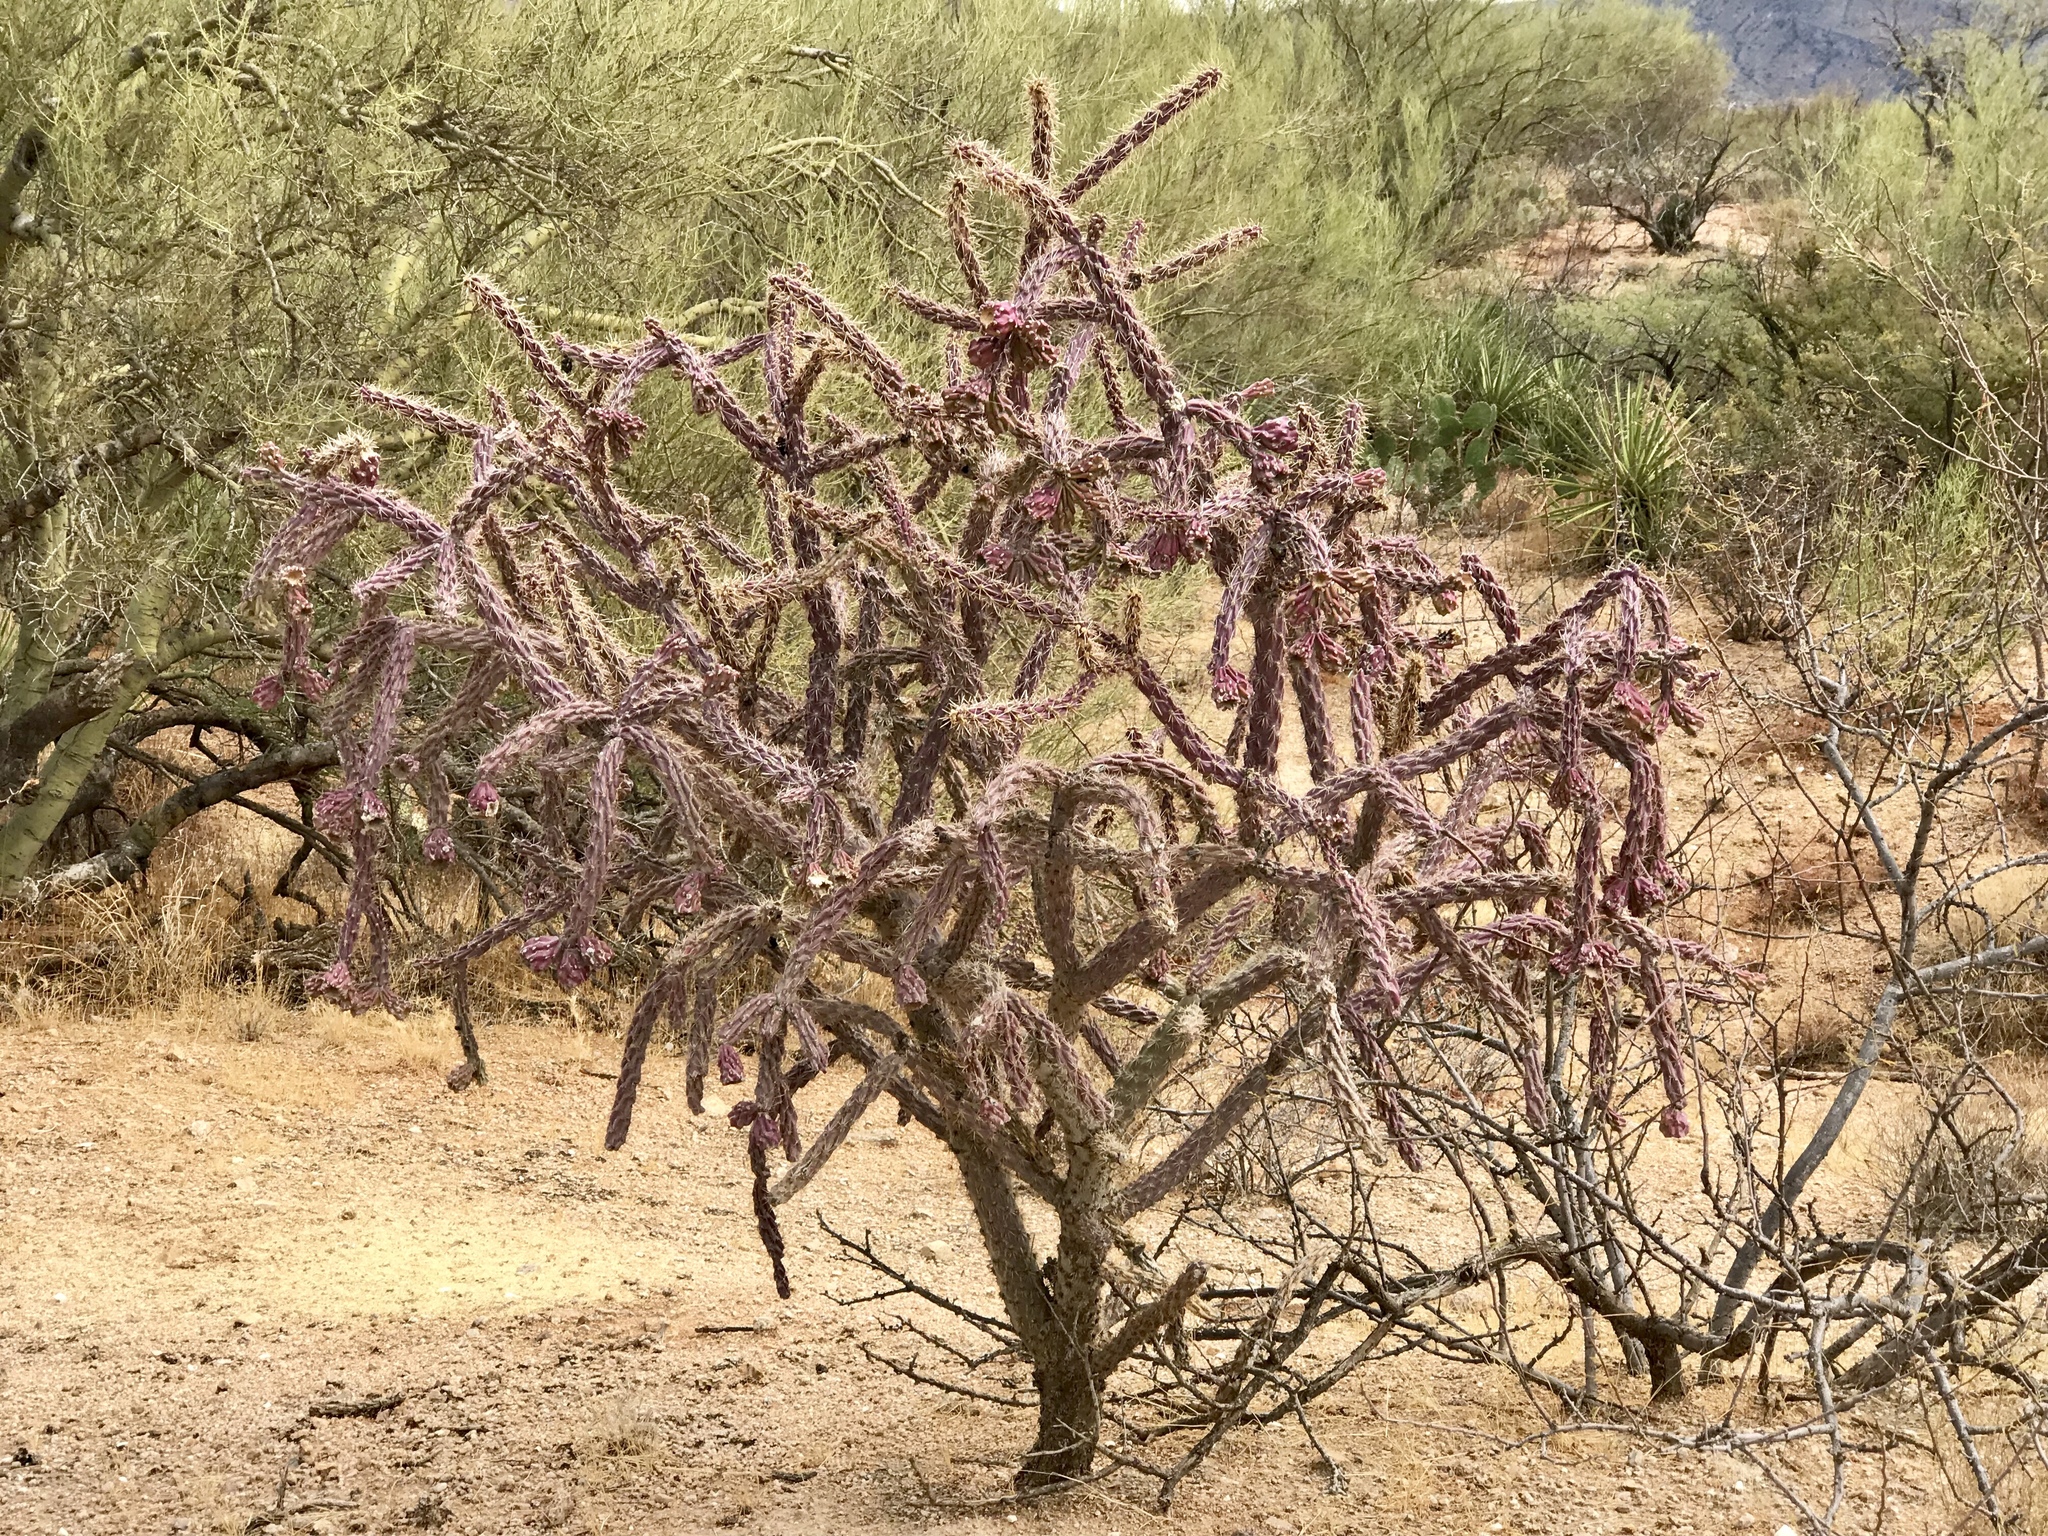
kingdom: Plantae
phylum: Tracheophyta
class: Magnoliopsida
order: Caryophyllales
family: Cactaceae
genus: Cylindropuntia
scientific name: Cylindropuntia thurberi
